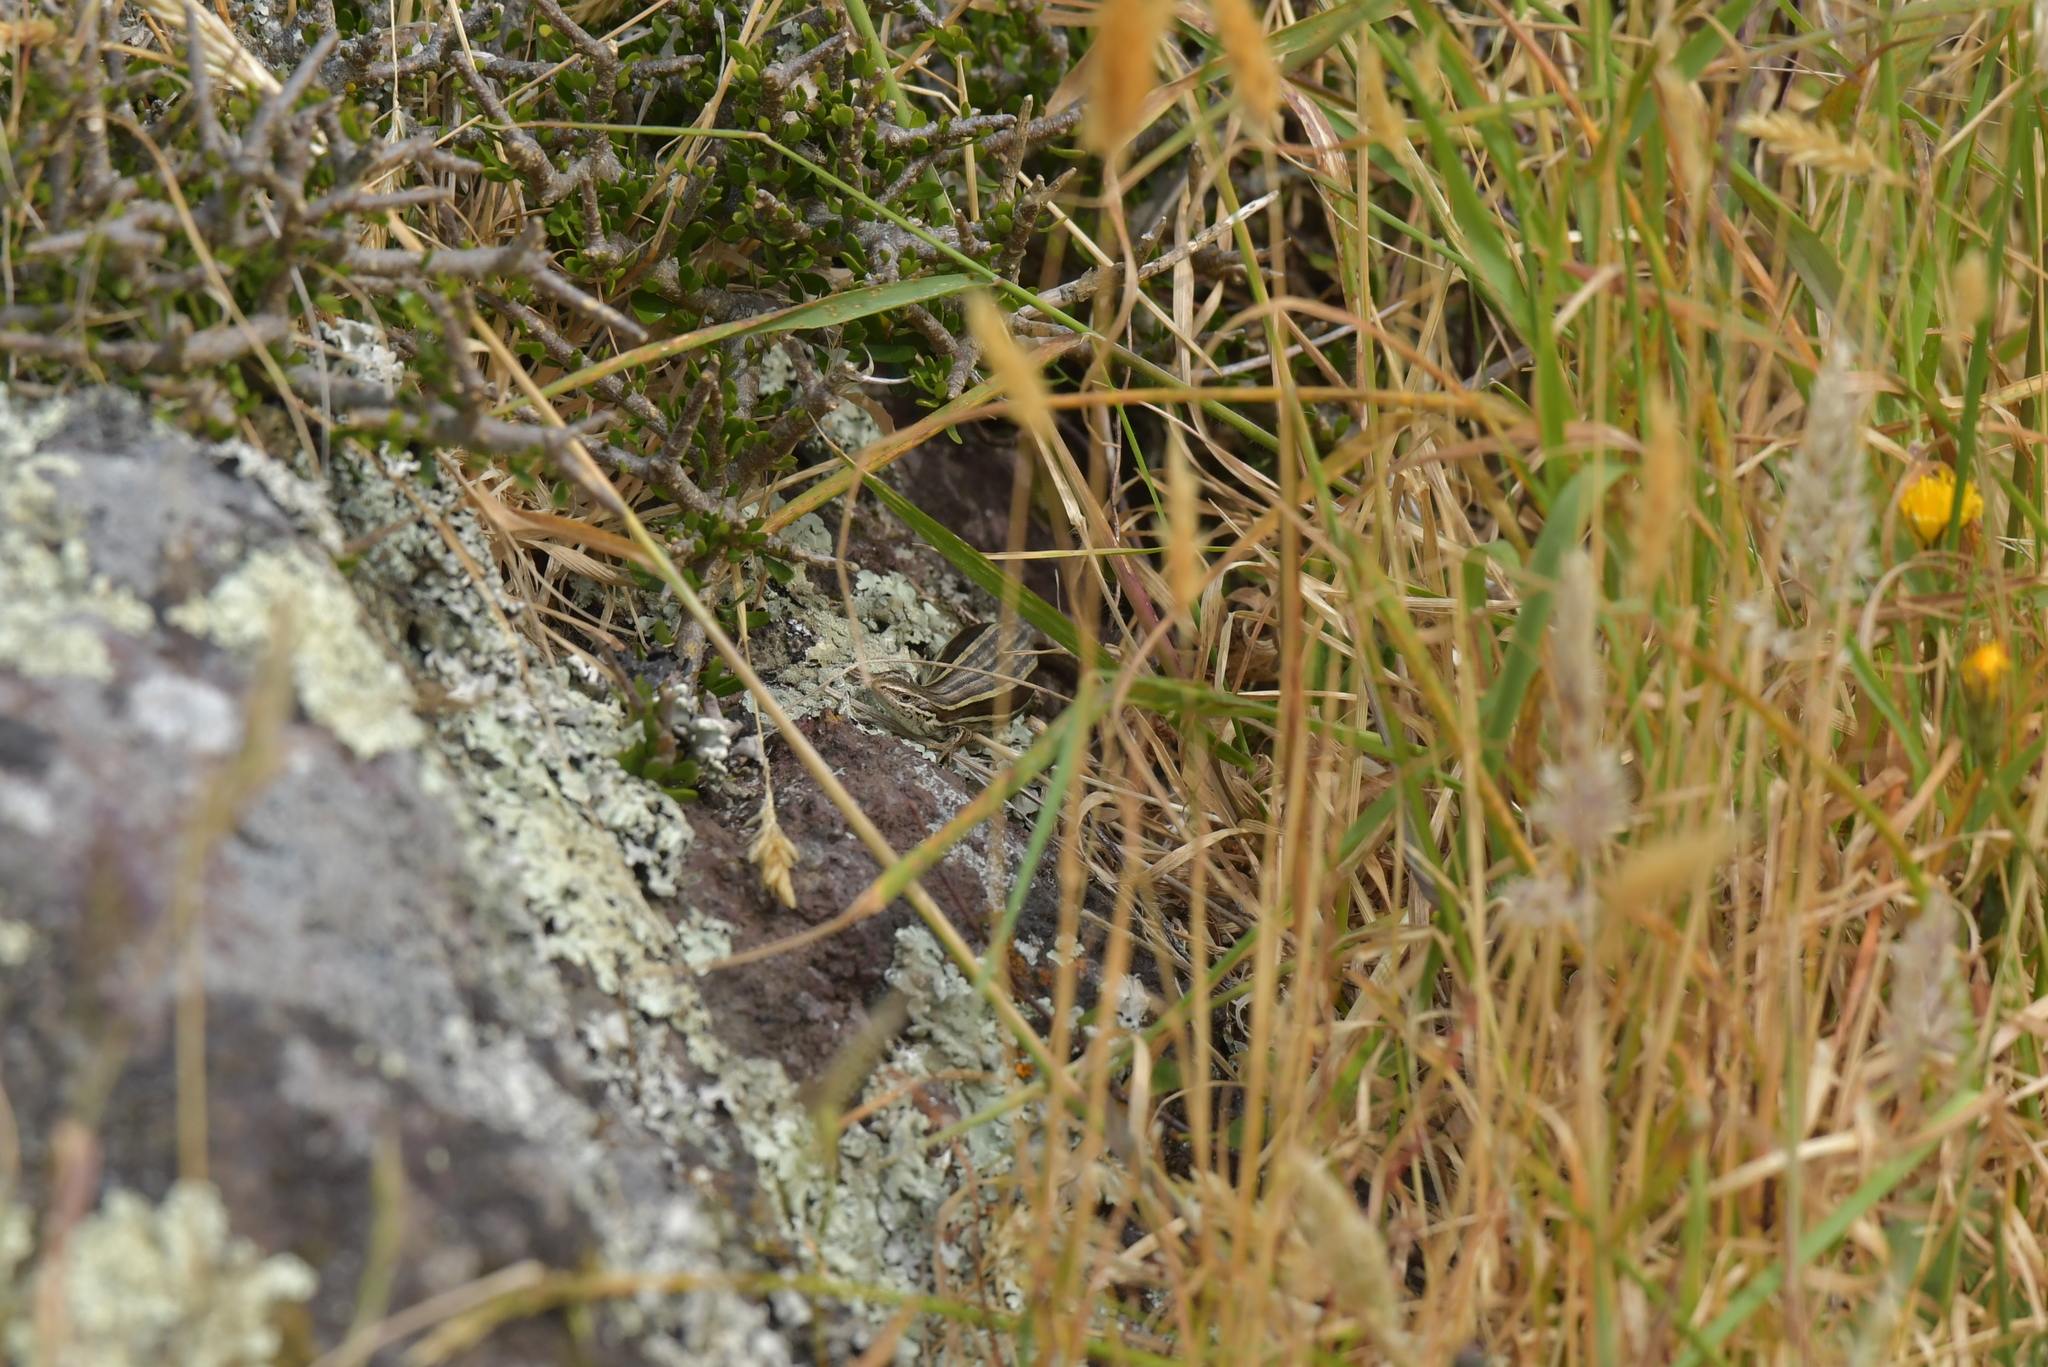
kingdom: Animalia
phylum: Chordata
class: Squamata
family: Scincidae
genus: Oligosoma
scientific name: Oligosoma maccanni
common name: Mccann’s skink
